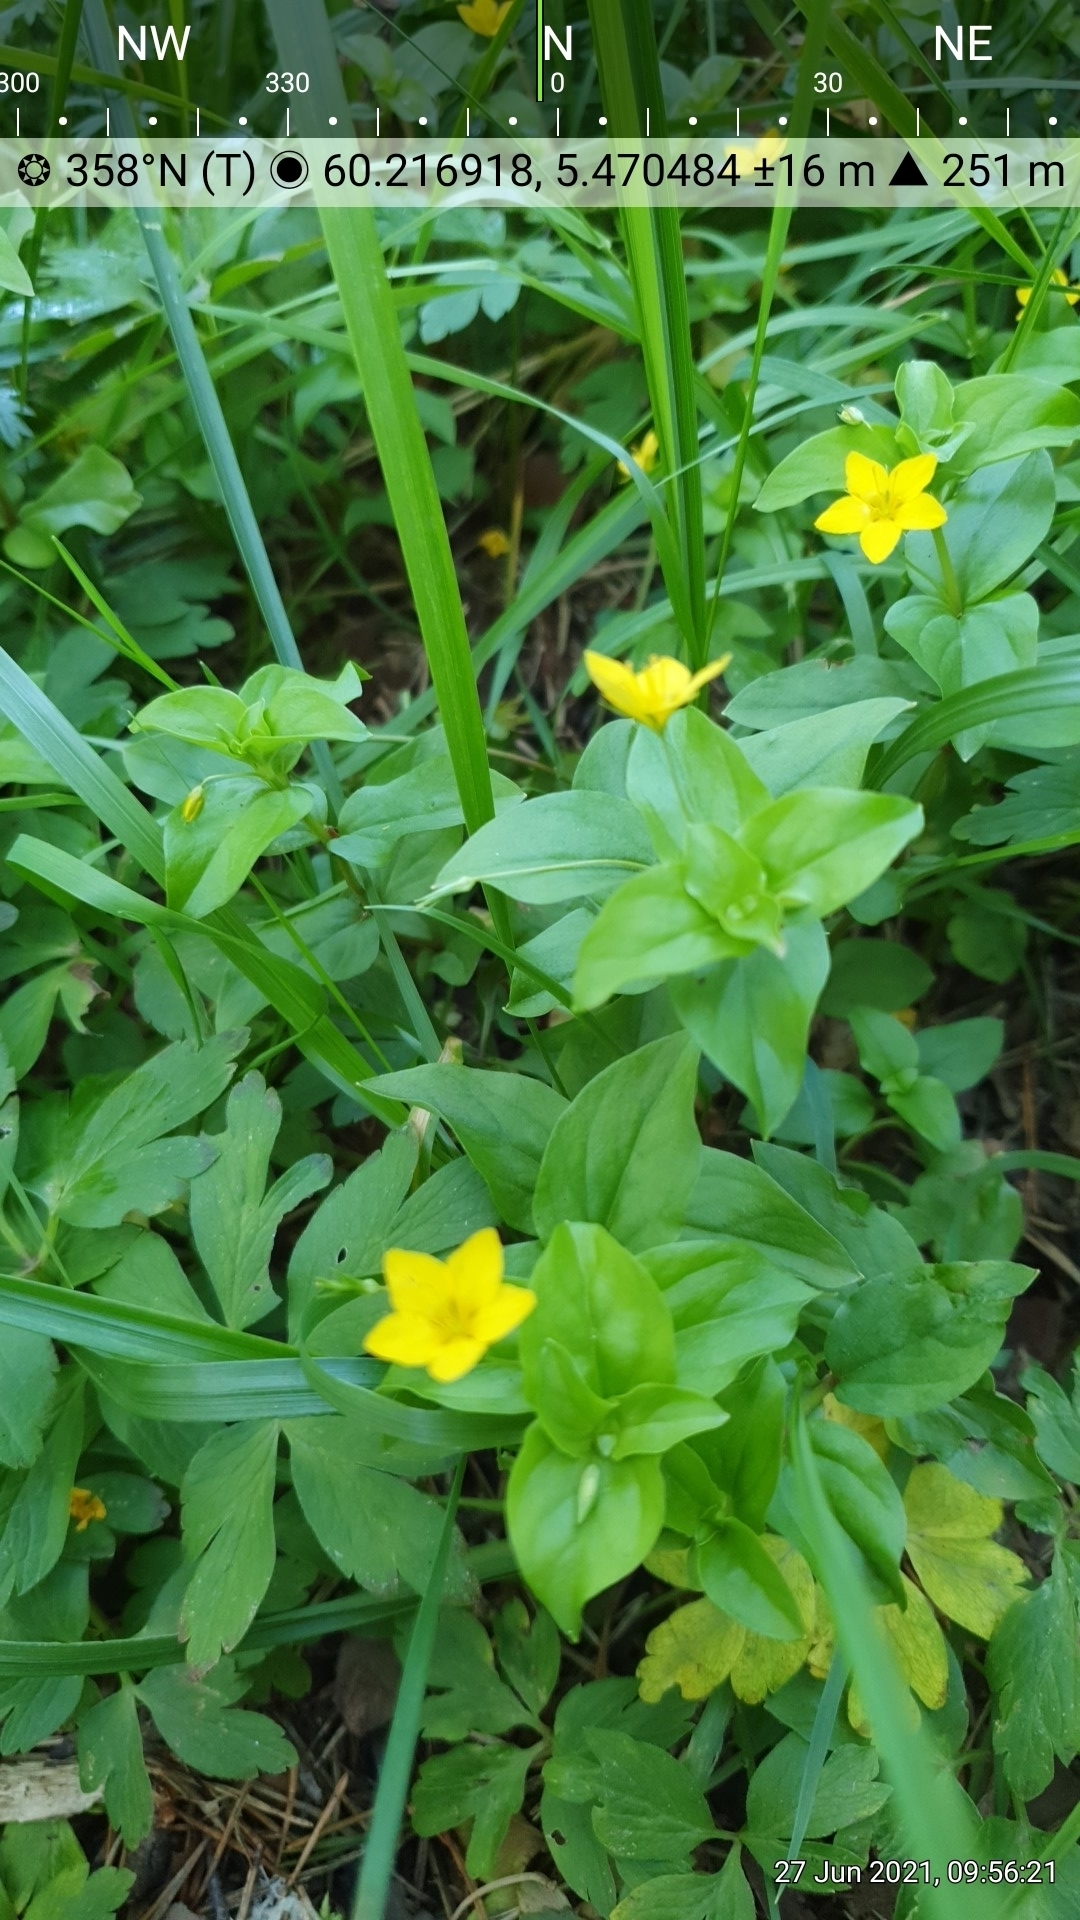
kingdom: Plantae
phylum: Tracheophyta
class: Magnoliopsida
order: Ericales
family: Primulaceae
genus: Lysimachia
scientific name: Lysimachia nemorum
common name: Yellow pimpernel
